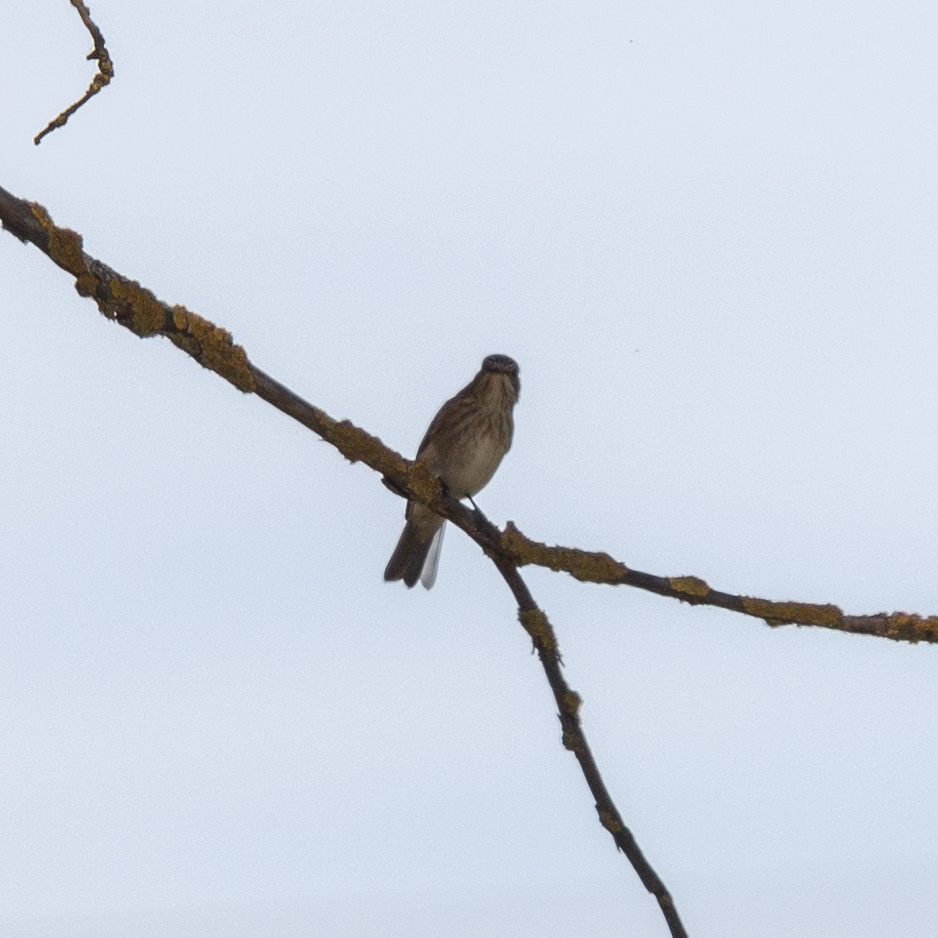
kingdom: Animalia
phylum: Chordata
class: Aves
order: Passeriformes
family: Muscicapidae
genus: Muscicapa
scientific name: Muscicapa striata
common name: Spotted flycatcher
